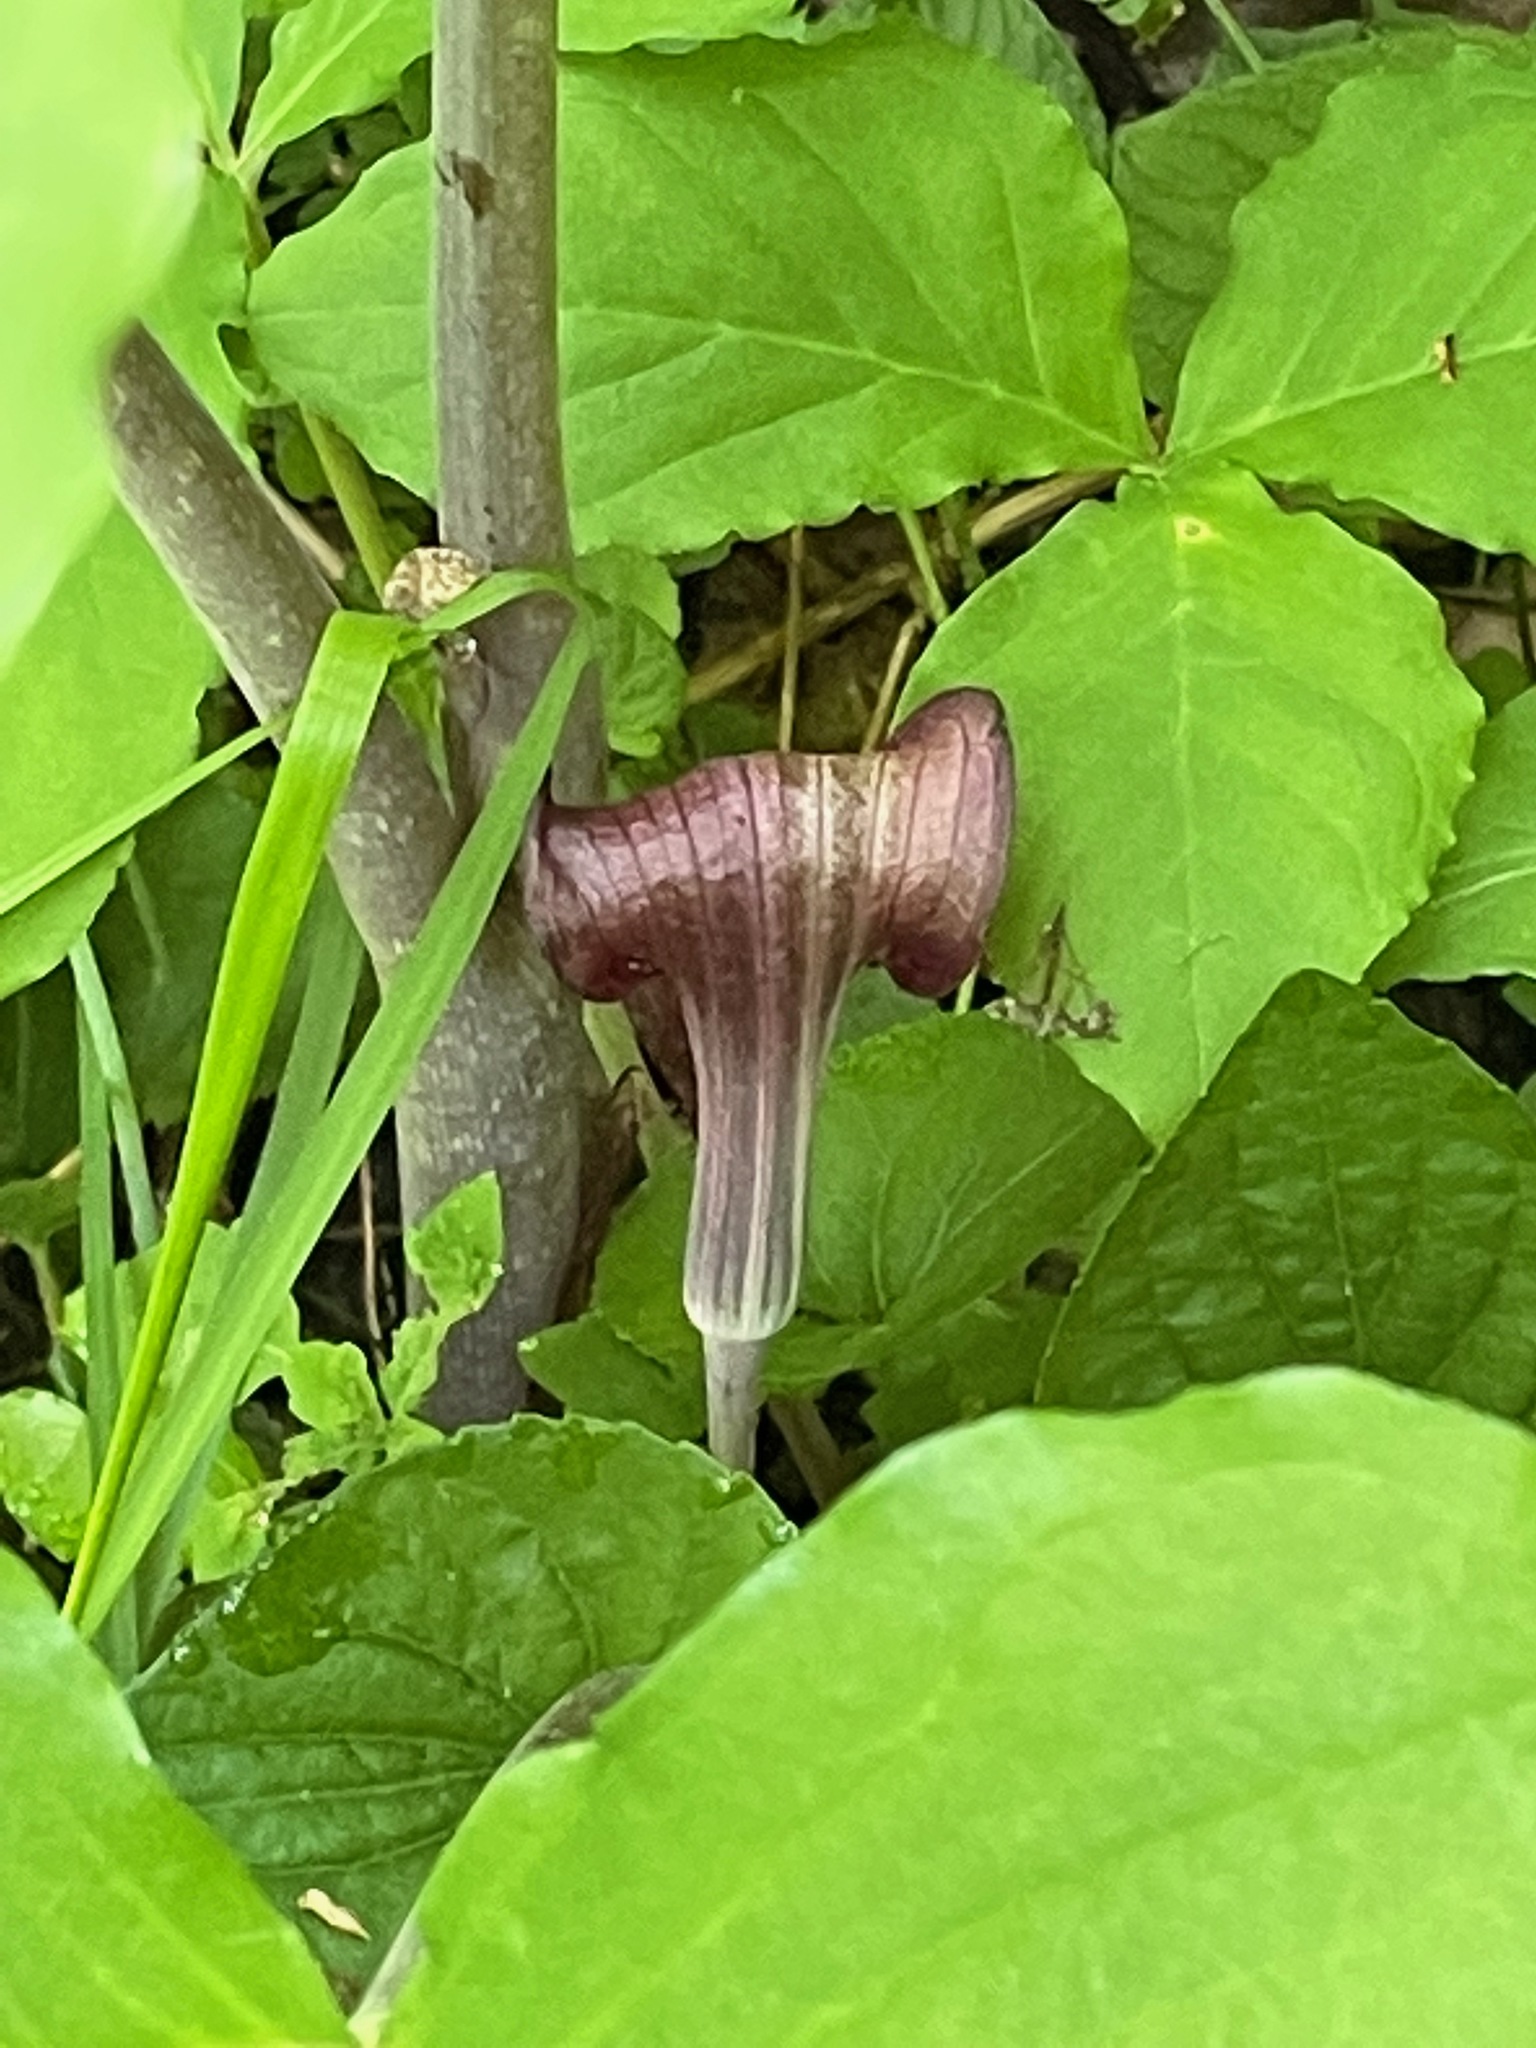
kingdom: Plantae
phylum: Tracheophyta
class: Liliopsida
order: Alismatales
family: Araceae
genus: Arisaema
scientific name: Arisaema triphyllum
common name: Jack-in-the-pulpit
